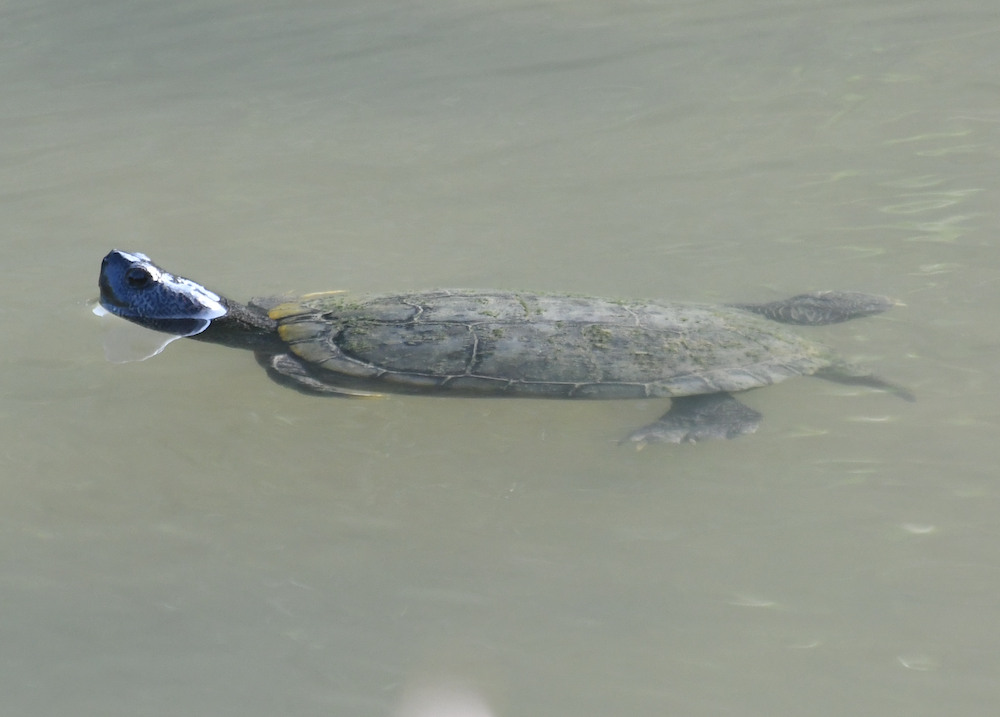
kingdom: Animalia
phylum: Chordata
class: Testudines
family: Emydidae
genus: Trachemys
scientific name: Trachemys scripta
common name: Slider
